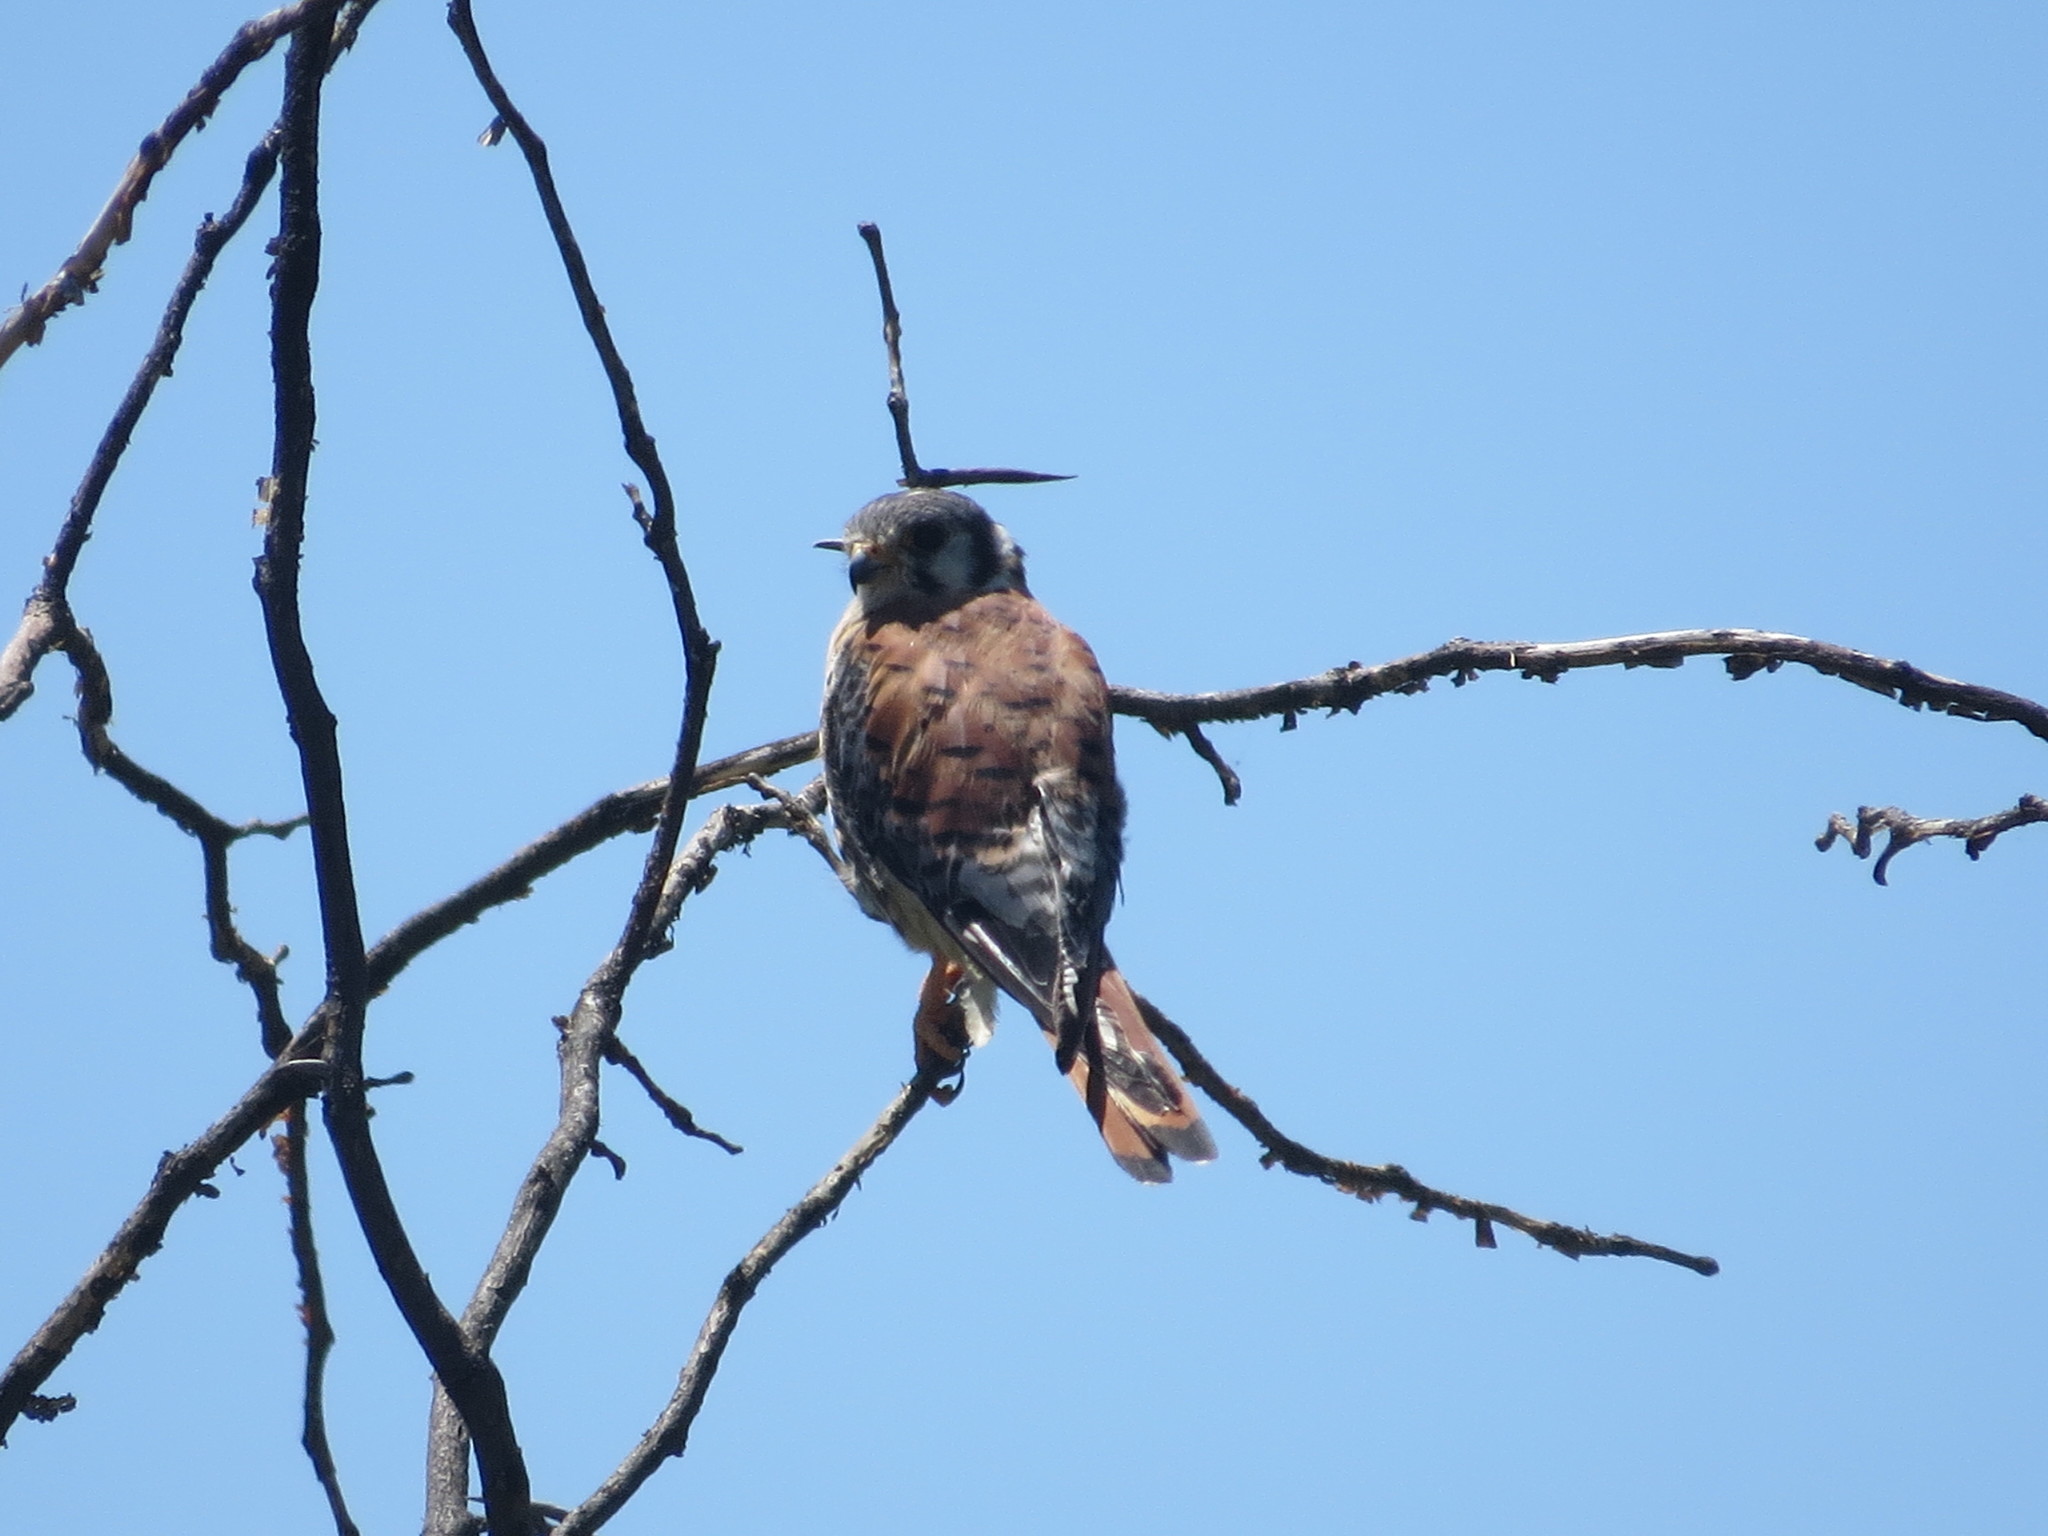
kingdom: Animalia
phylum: Chordata
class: Aves
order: Falconiformes
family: Falconidae
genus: Falco
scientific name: Falco sparverius
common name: American kestrel
